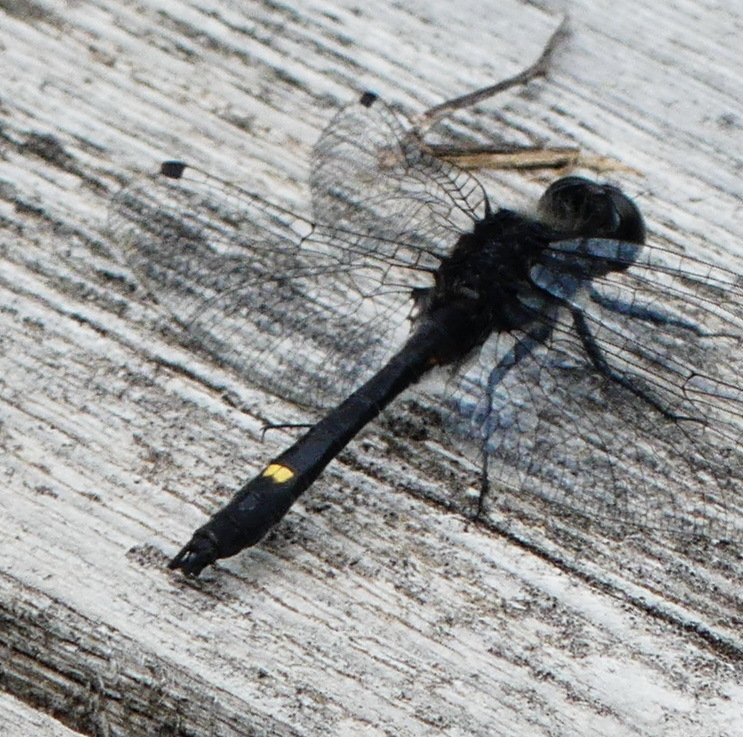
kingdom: Animalia
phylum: Arthropoda
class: Insecta
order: Odonata
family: Libellulidae
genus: Leucorrhinia
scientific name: Leucorrhinia intacta
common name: Dot-tailed whiteface
